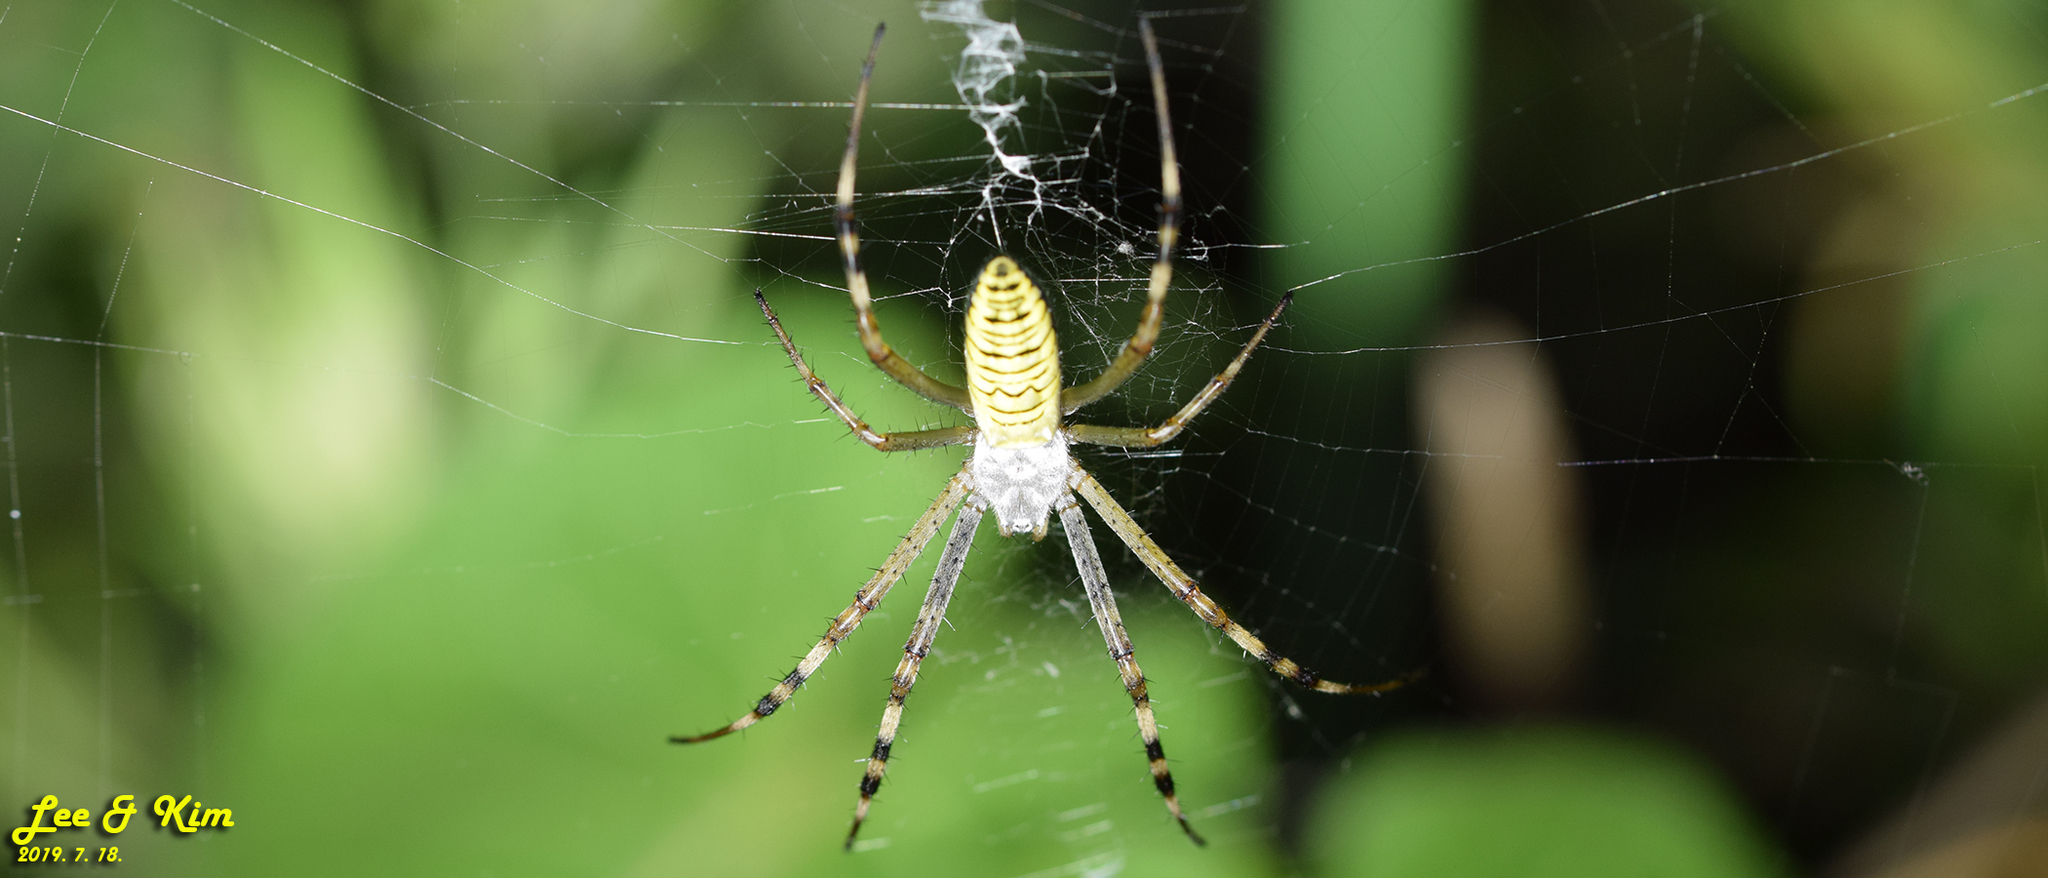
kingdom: Animalia
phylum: Arthropoda
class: Arachnida
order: Araneae
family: Araneidae
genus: Argiope
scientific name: Argiope bruennichi
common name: Wasp spider
